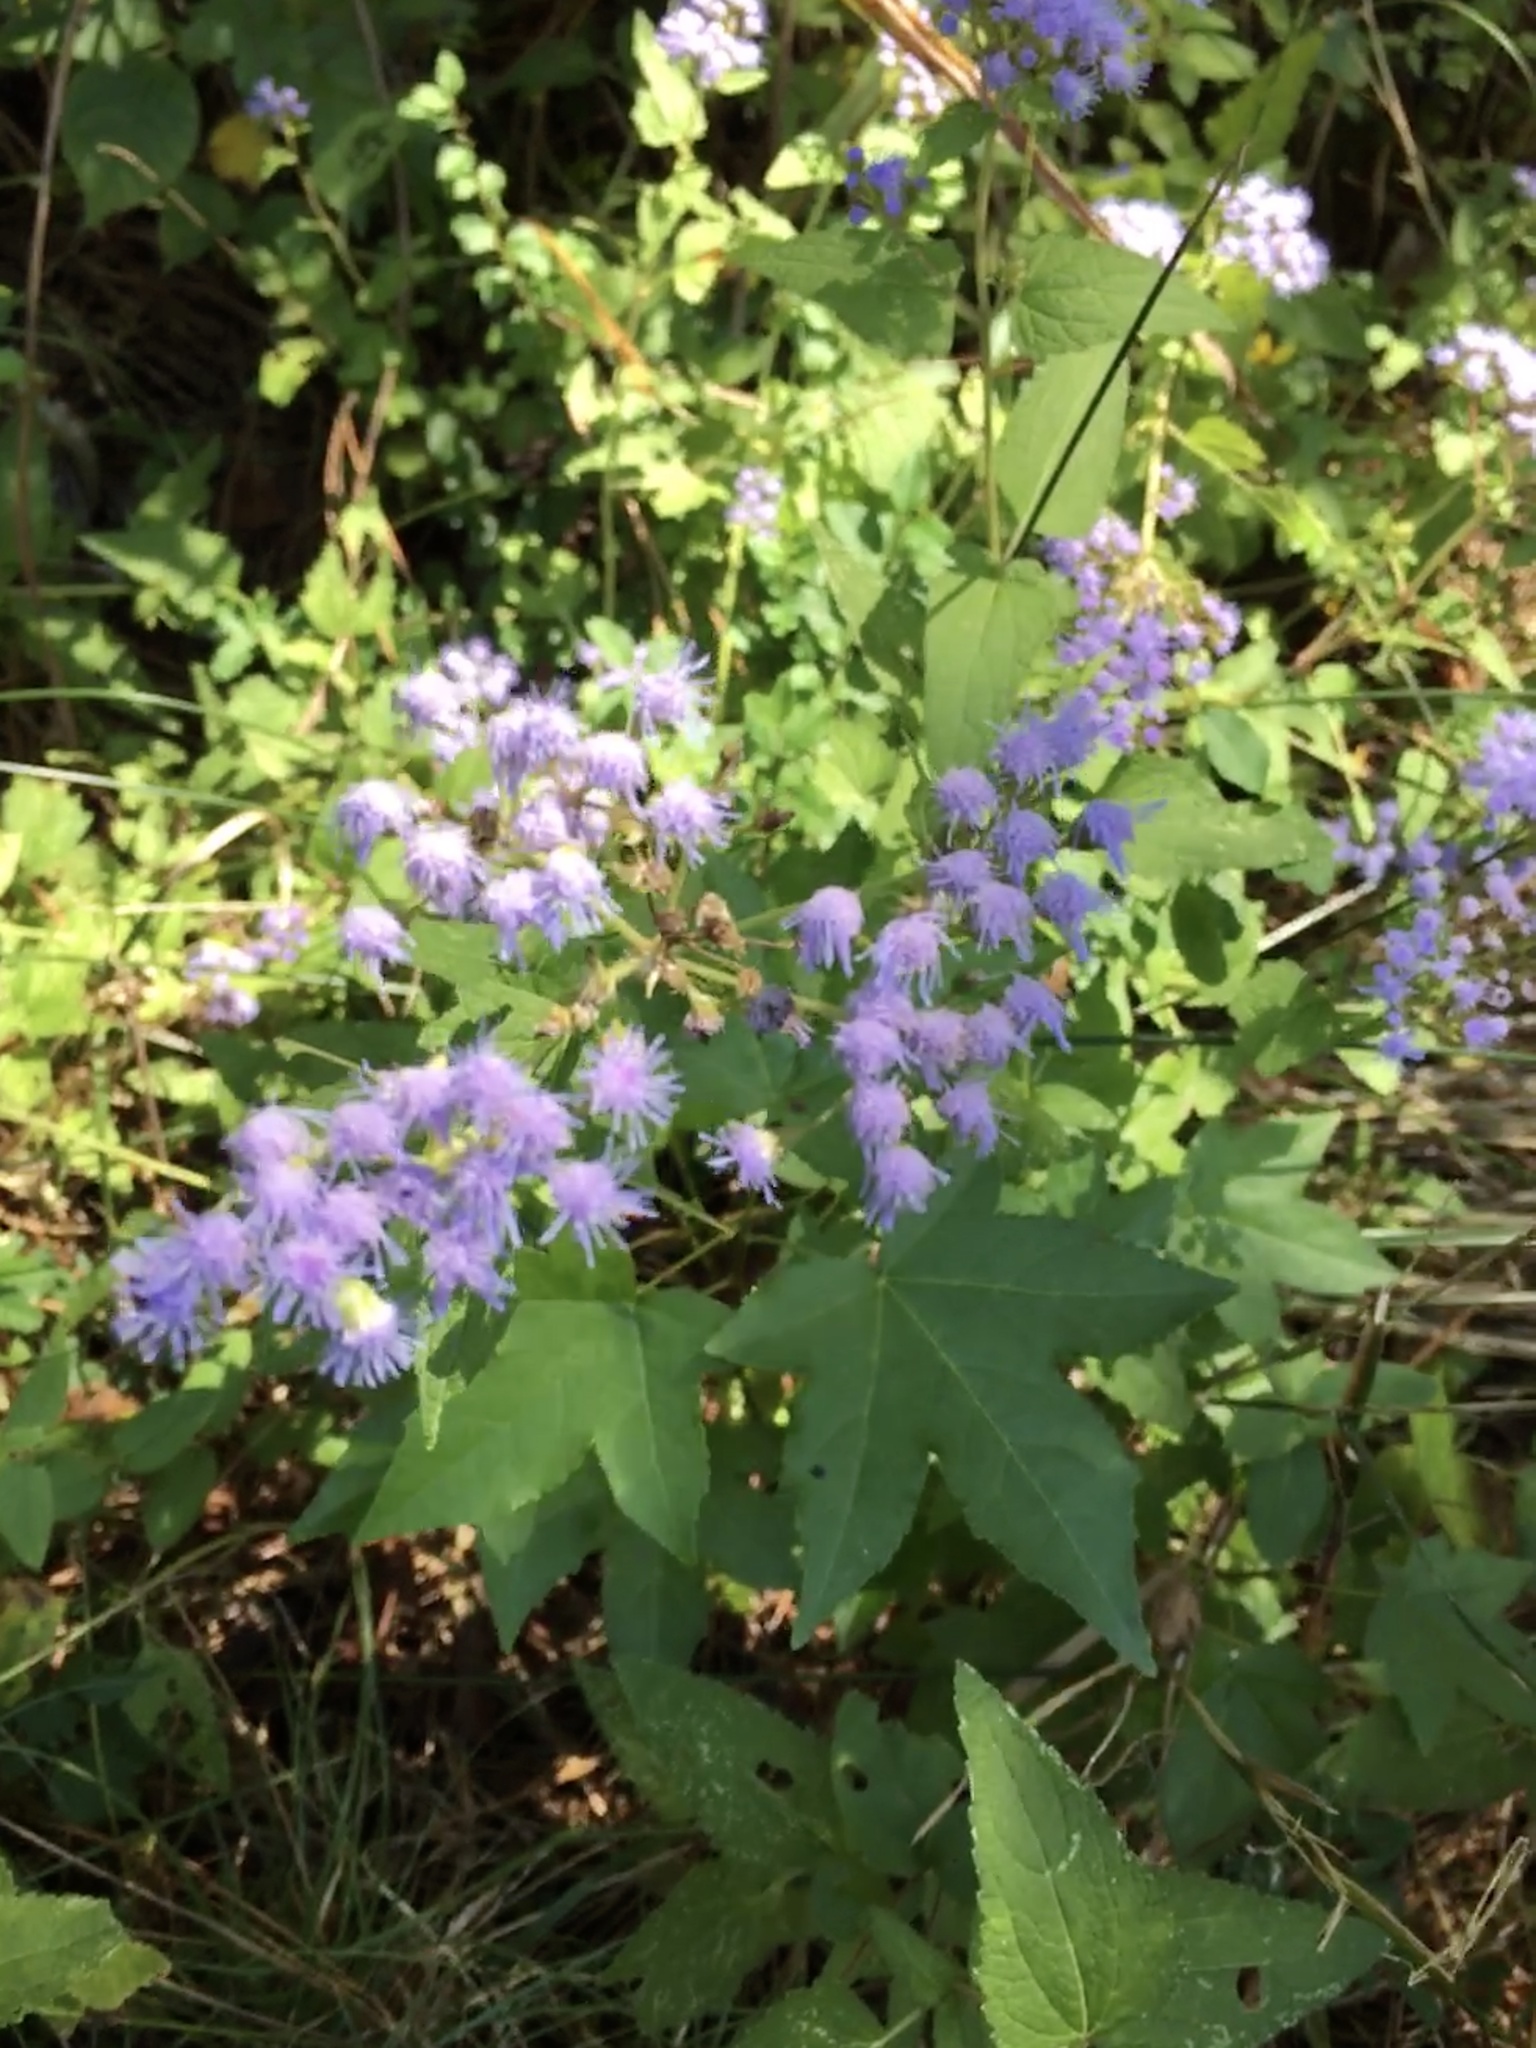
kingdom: Plantae
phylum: Tracheophyta
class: Magnoliopsida
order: Asterales
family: Asteraceae
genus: Conoclinium
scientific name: Conoclinium coelestinum
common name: Blue mistflower
